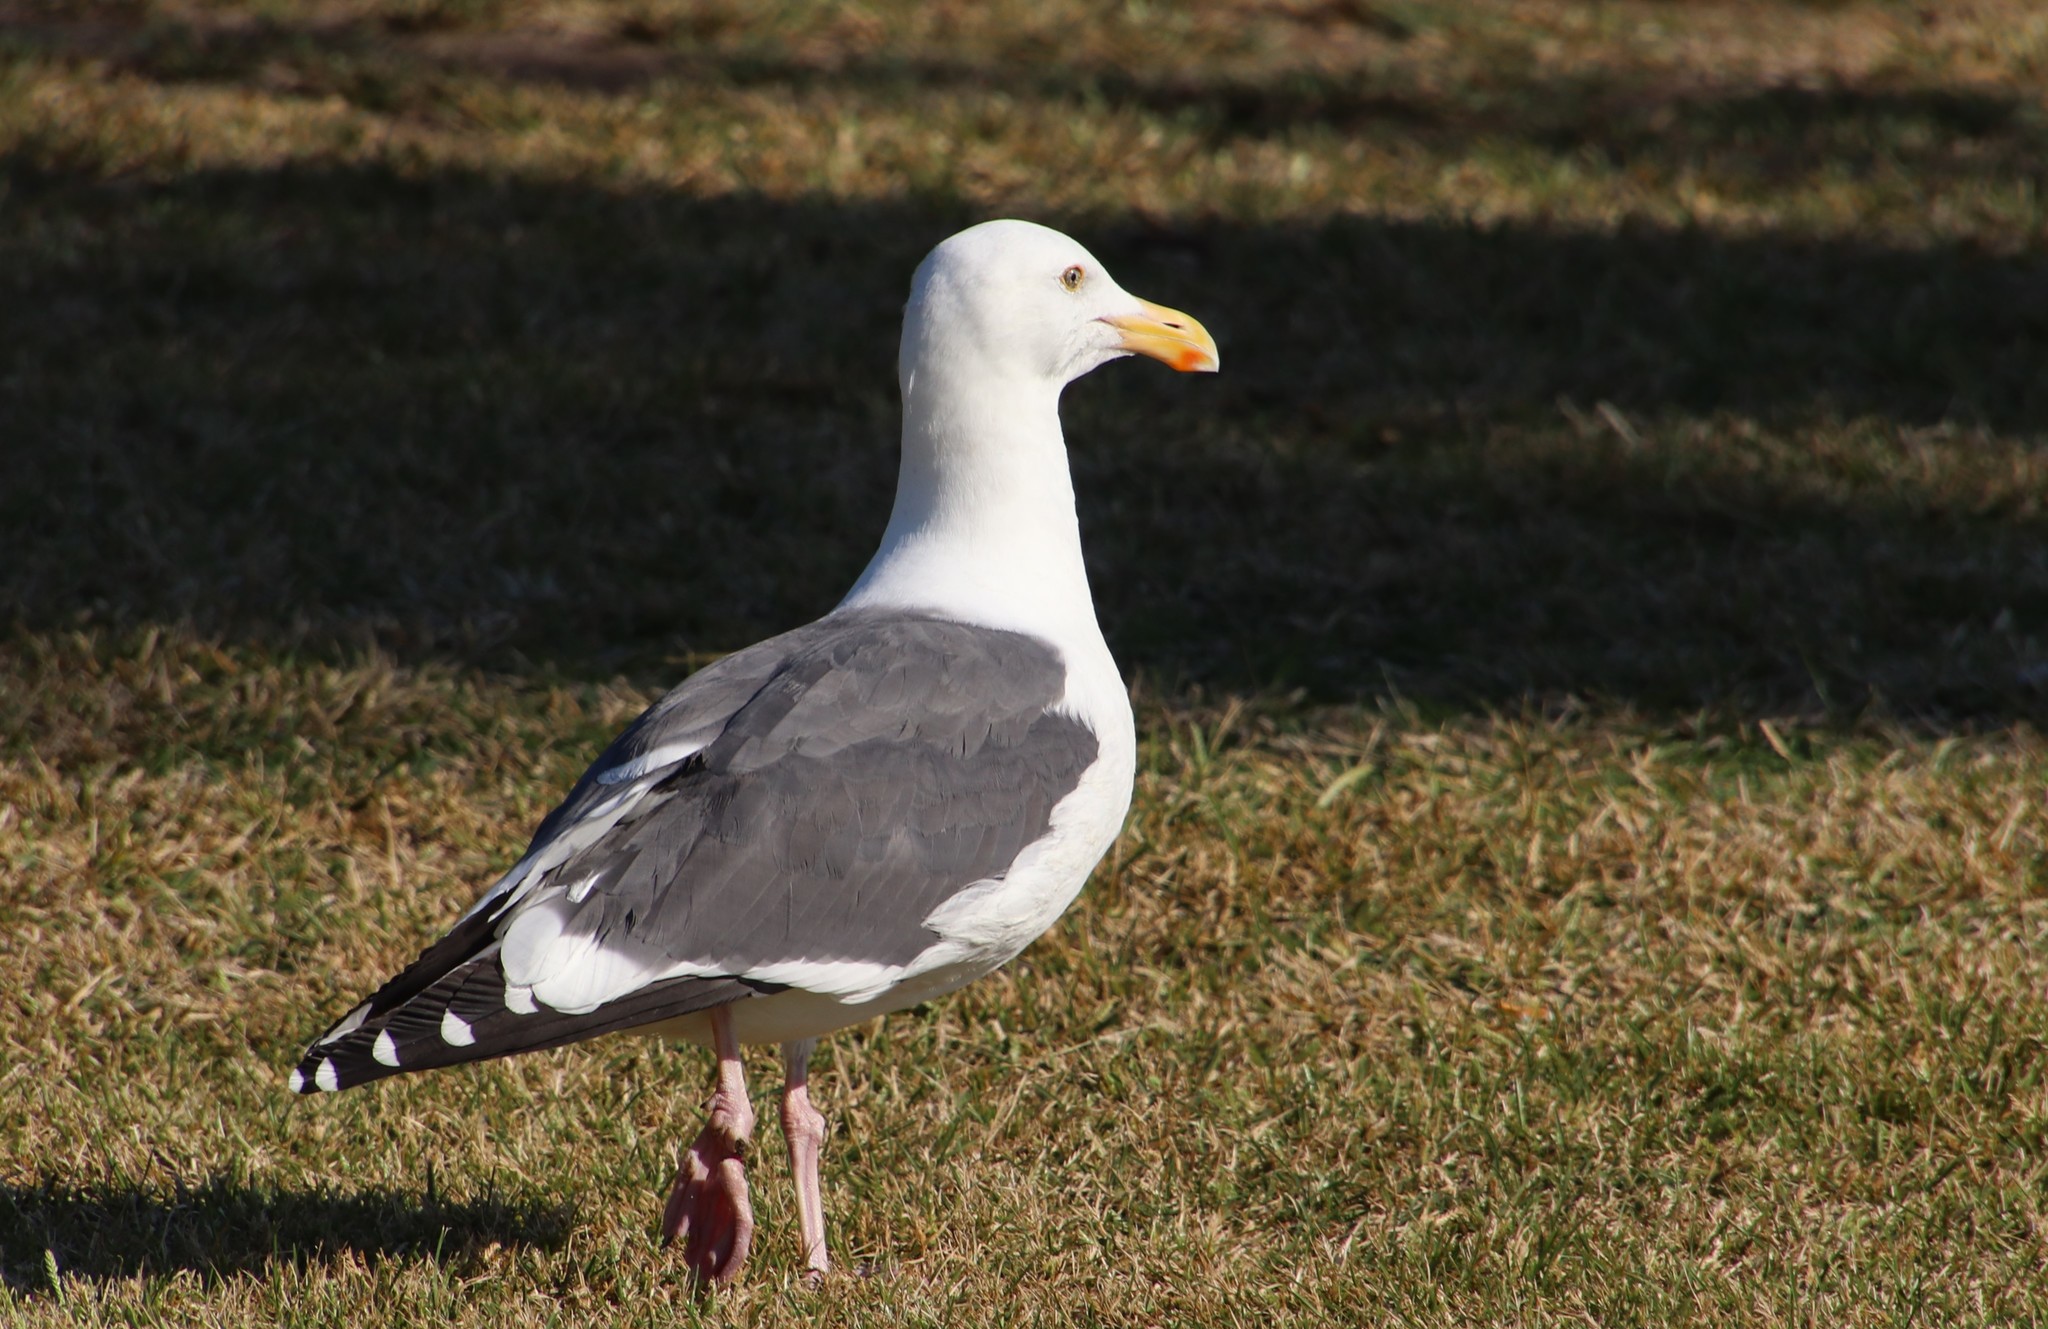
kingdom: Animalia
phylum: Chordata
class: Aves
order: Charadriiformes
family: Laridae
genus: Larus
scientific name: Larus occidentalis
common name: Western gull
